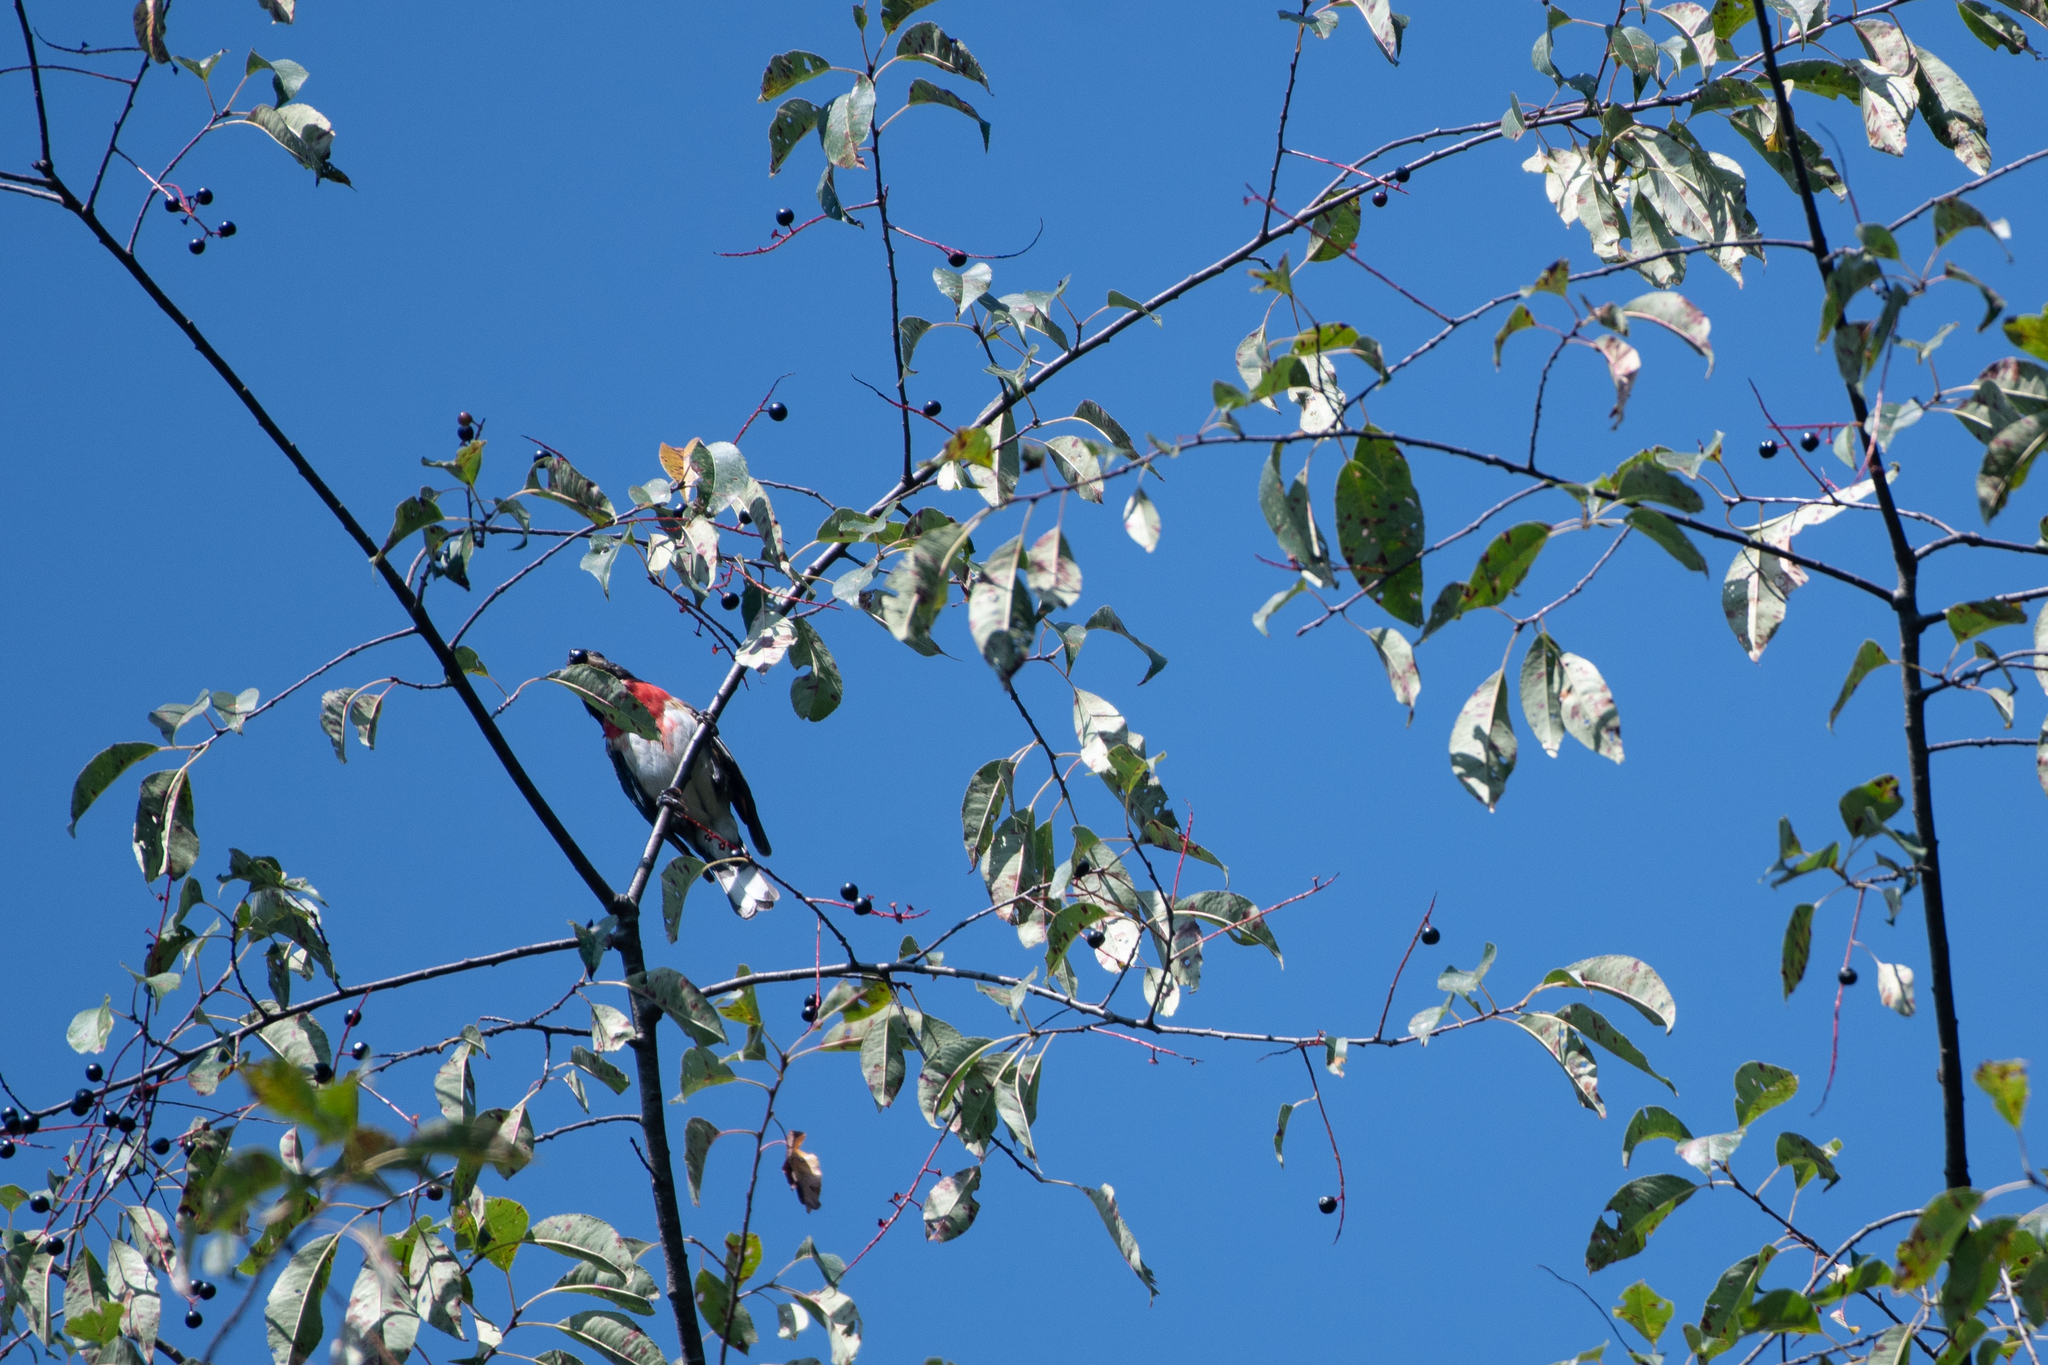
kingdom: Animalia
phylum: Chordata
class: Aves
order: Passeriformes
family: Cardinalidae
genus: Pheucticus
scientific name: Pheucticus ludovicianus
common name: Rose-breasted grosbeak
